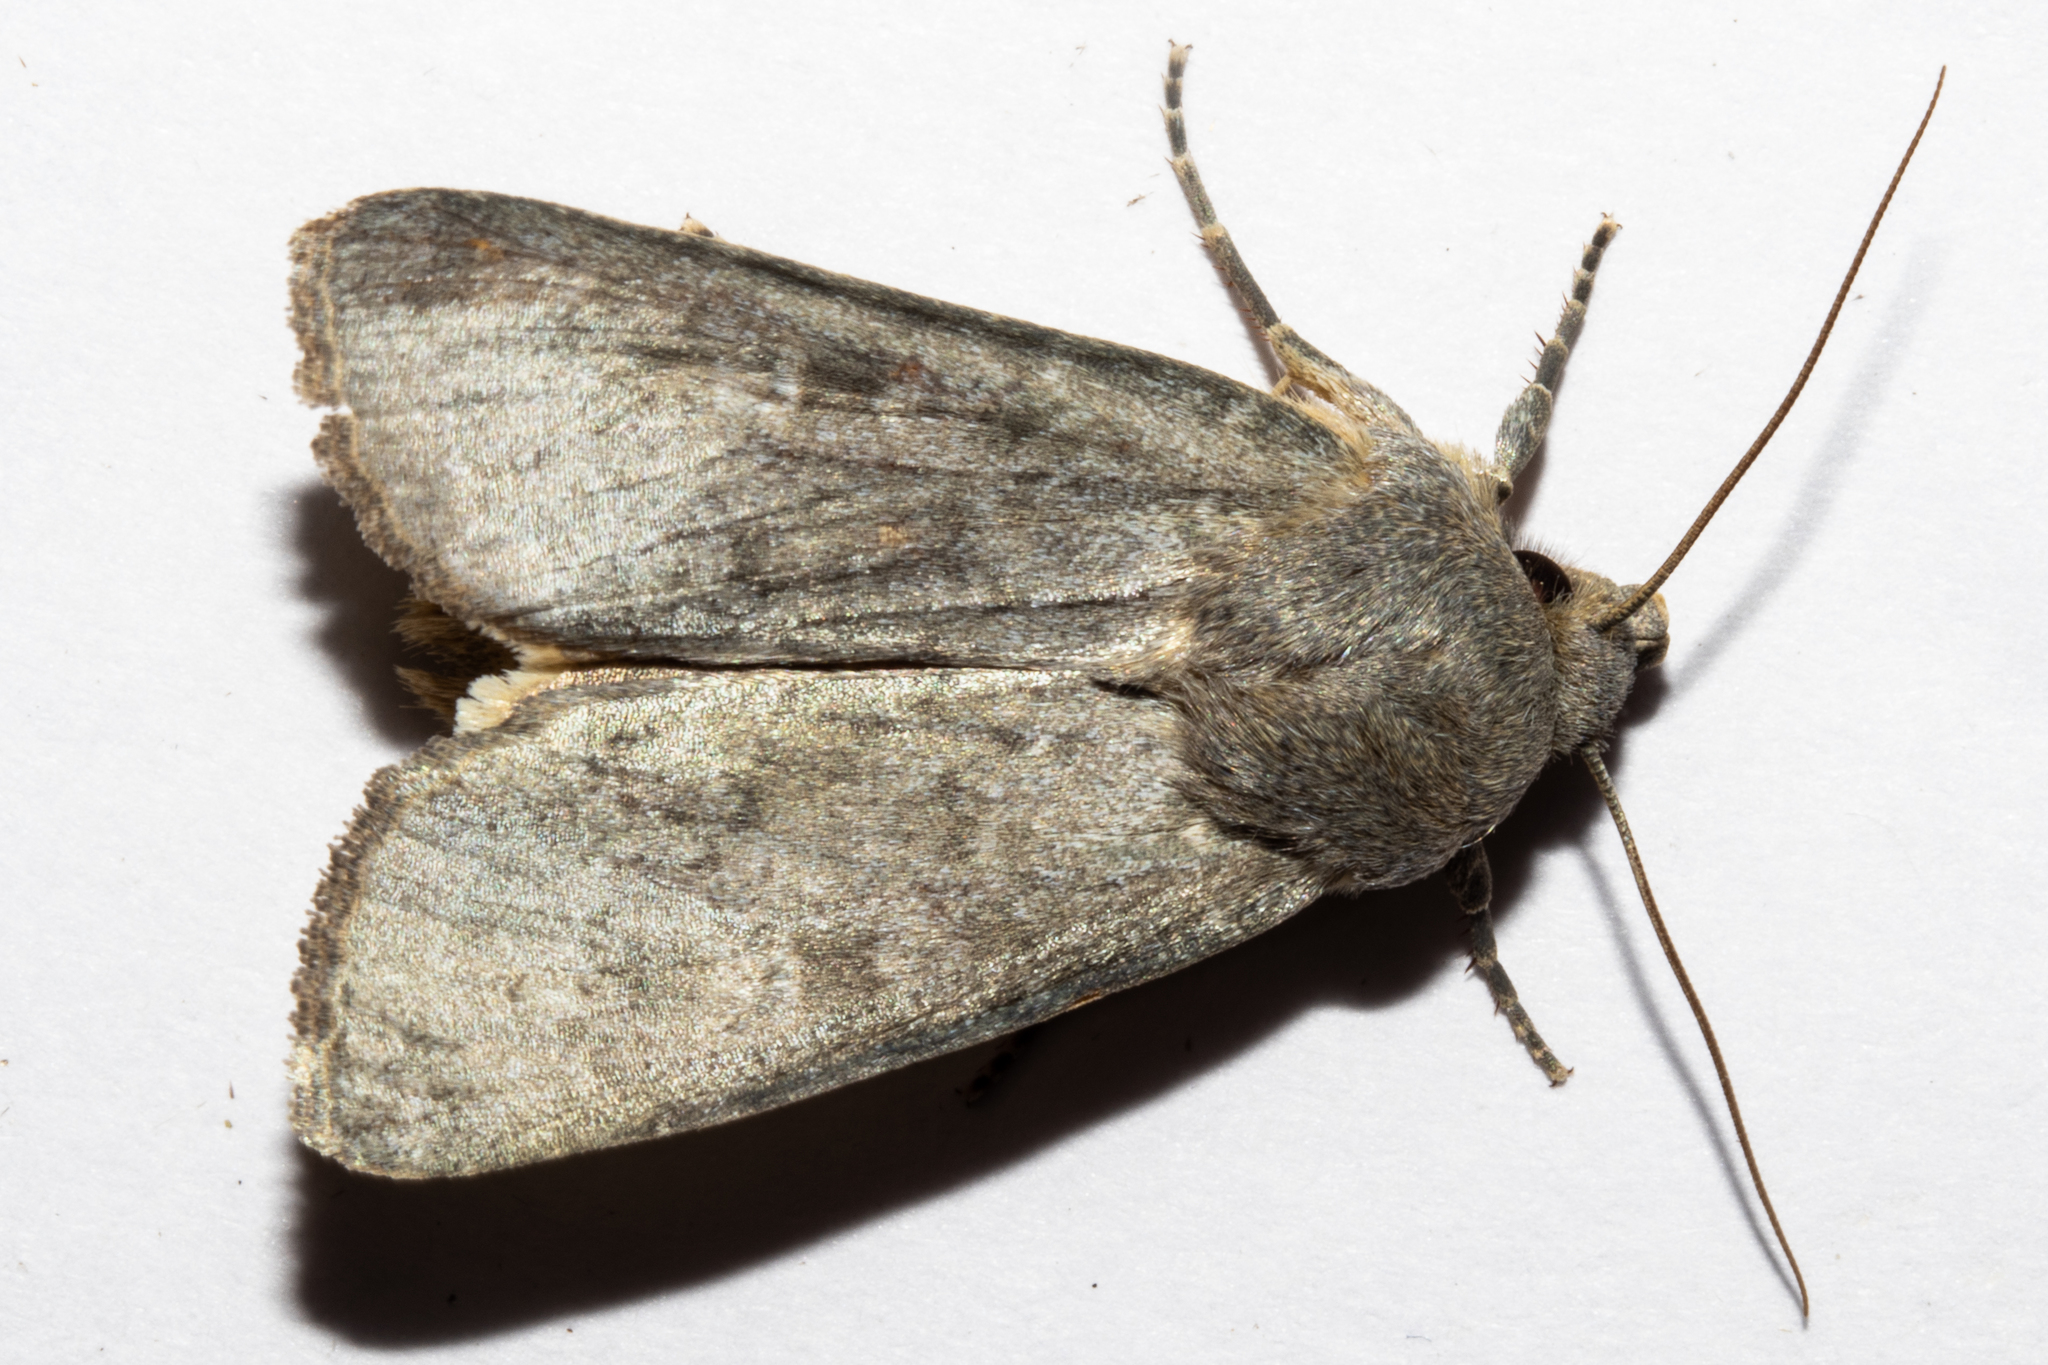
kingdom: Animalia
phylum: Arthropoda
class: Insecta
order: Lepidoptera
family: Noctuidae
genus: Physetica
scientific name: Physetica caerulea
